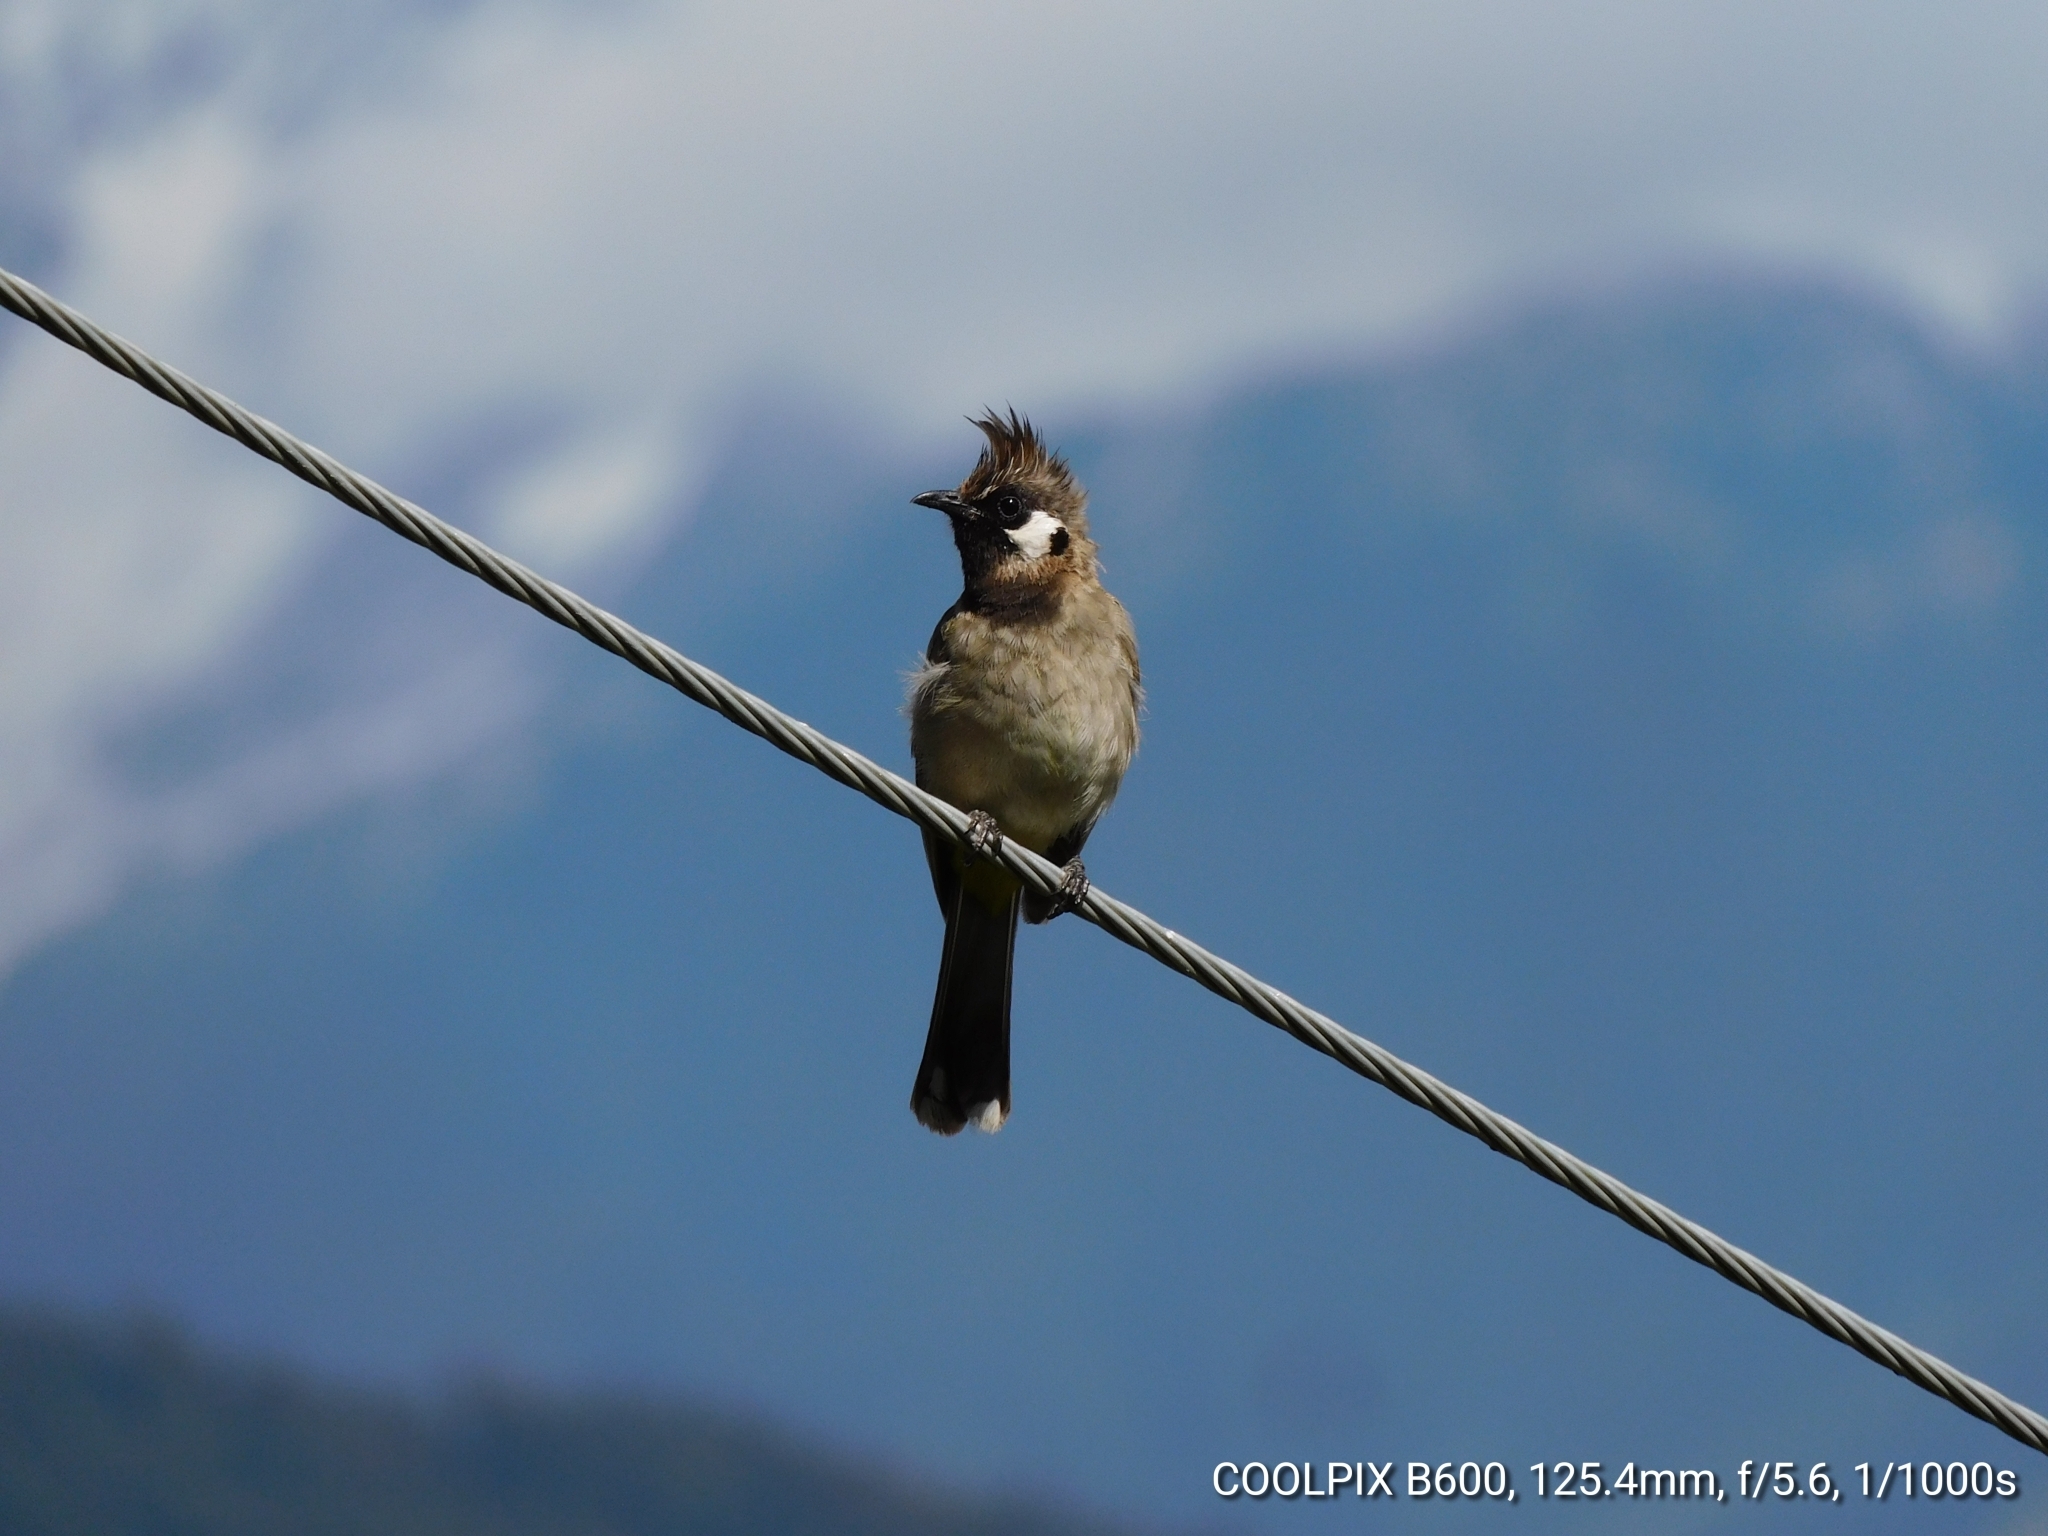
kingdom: Animalia
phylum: Chordata
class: Aves
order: Passeriformes
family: Pycnonotidae
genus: Pycnonotus
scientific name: Pycnonotus leucogenys
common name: Himalayan bulbul
